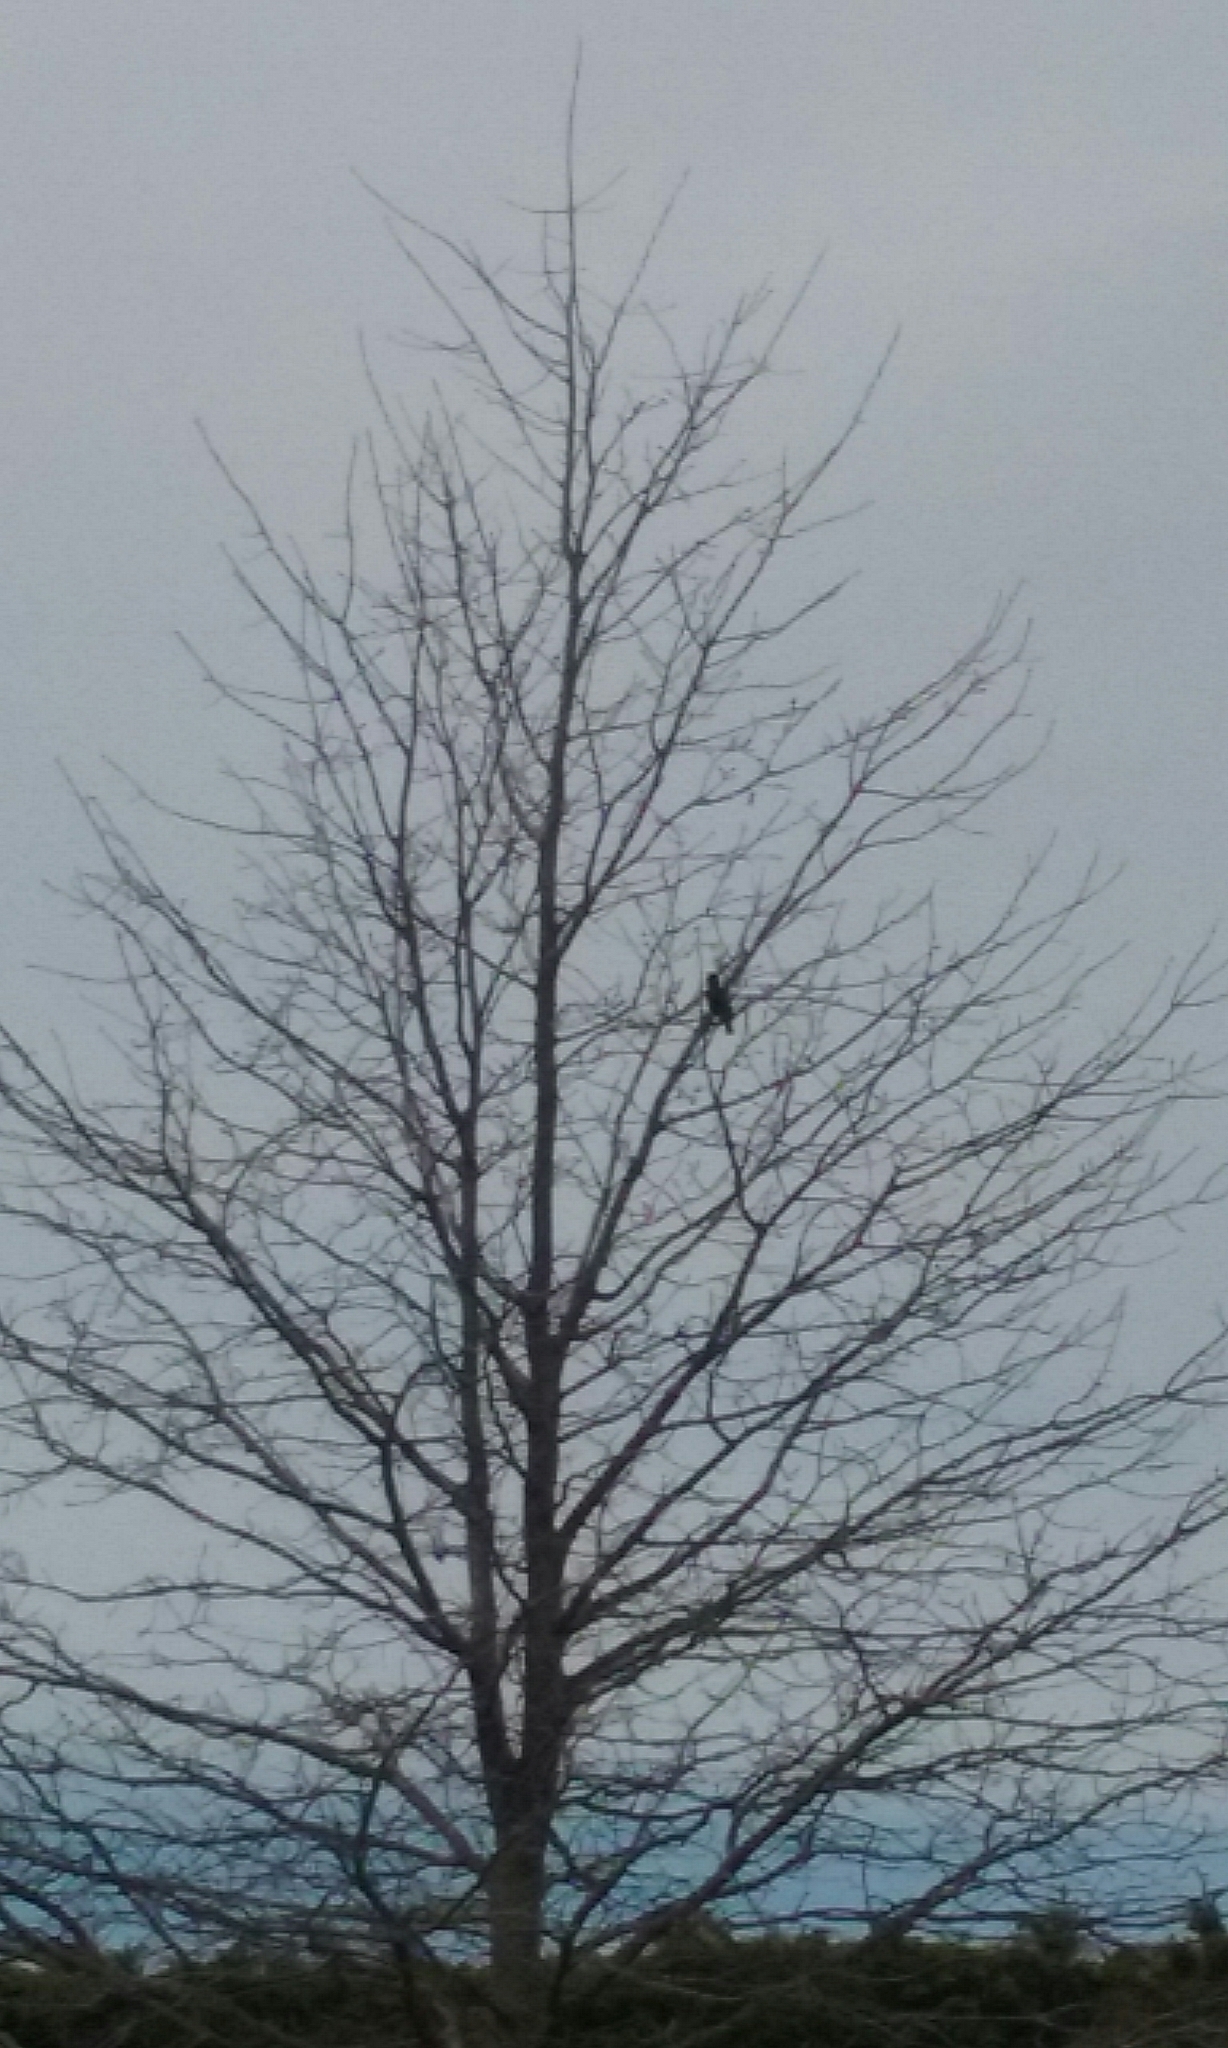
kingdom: Animalia
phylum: Chordata
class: Aves
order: Passeriformes
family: Sturnidae
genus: Sturnus
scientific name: Sturnus vulgaris
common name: Common starling
